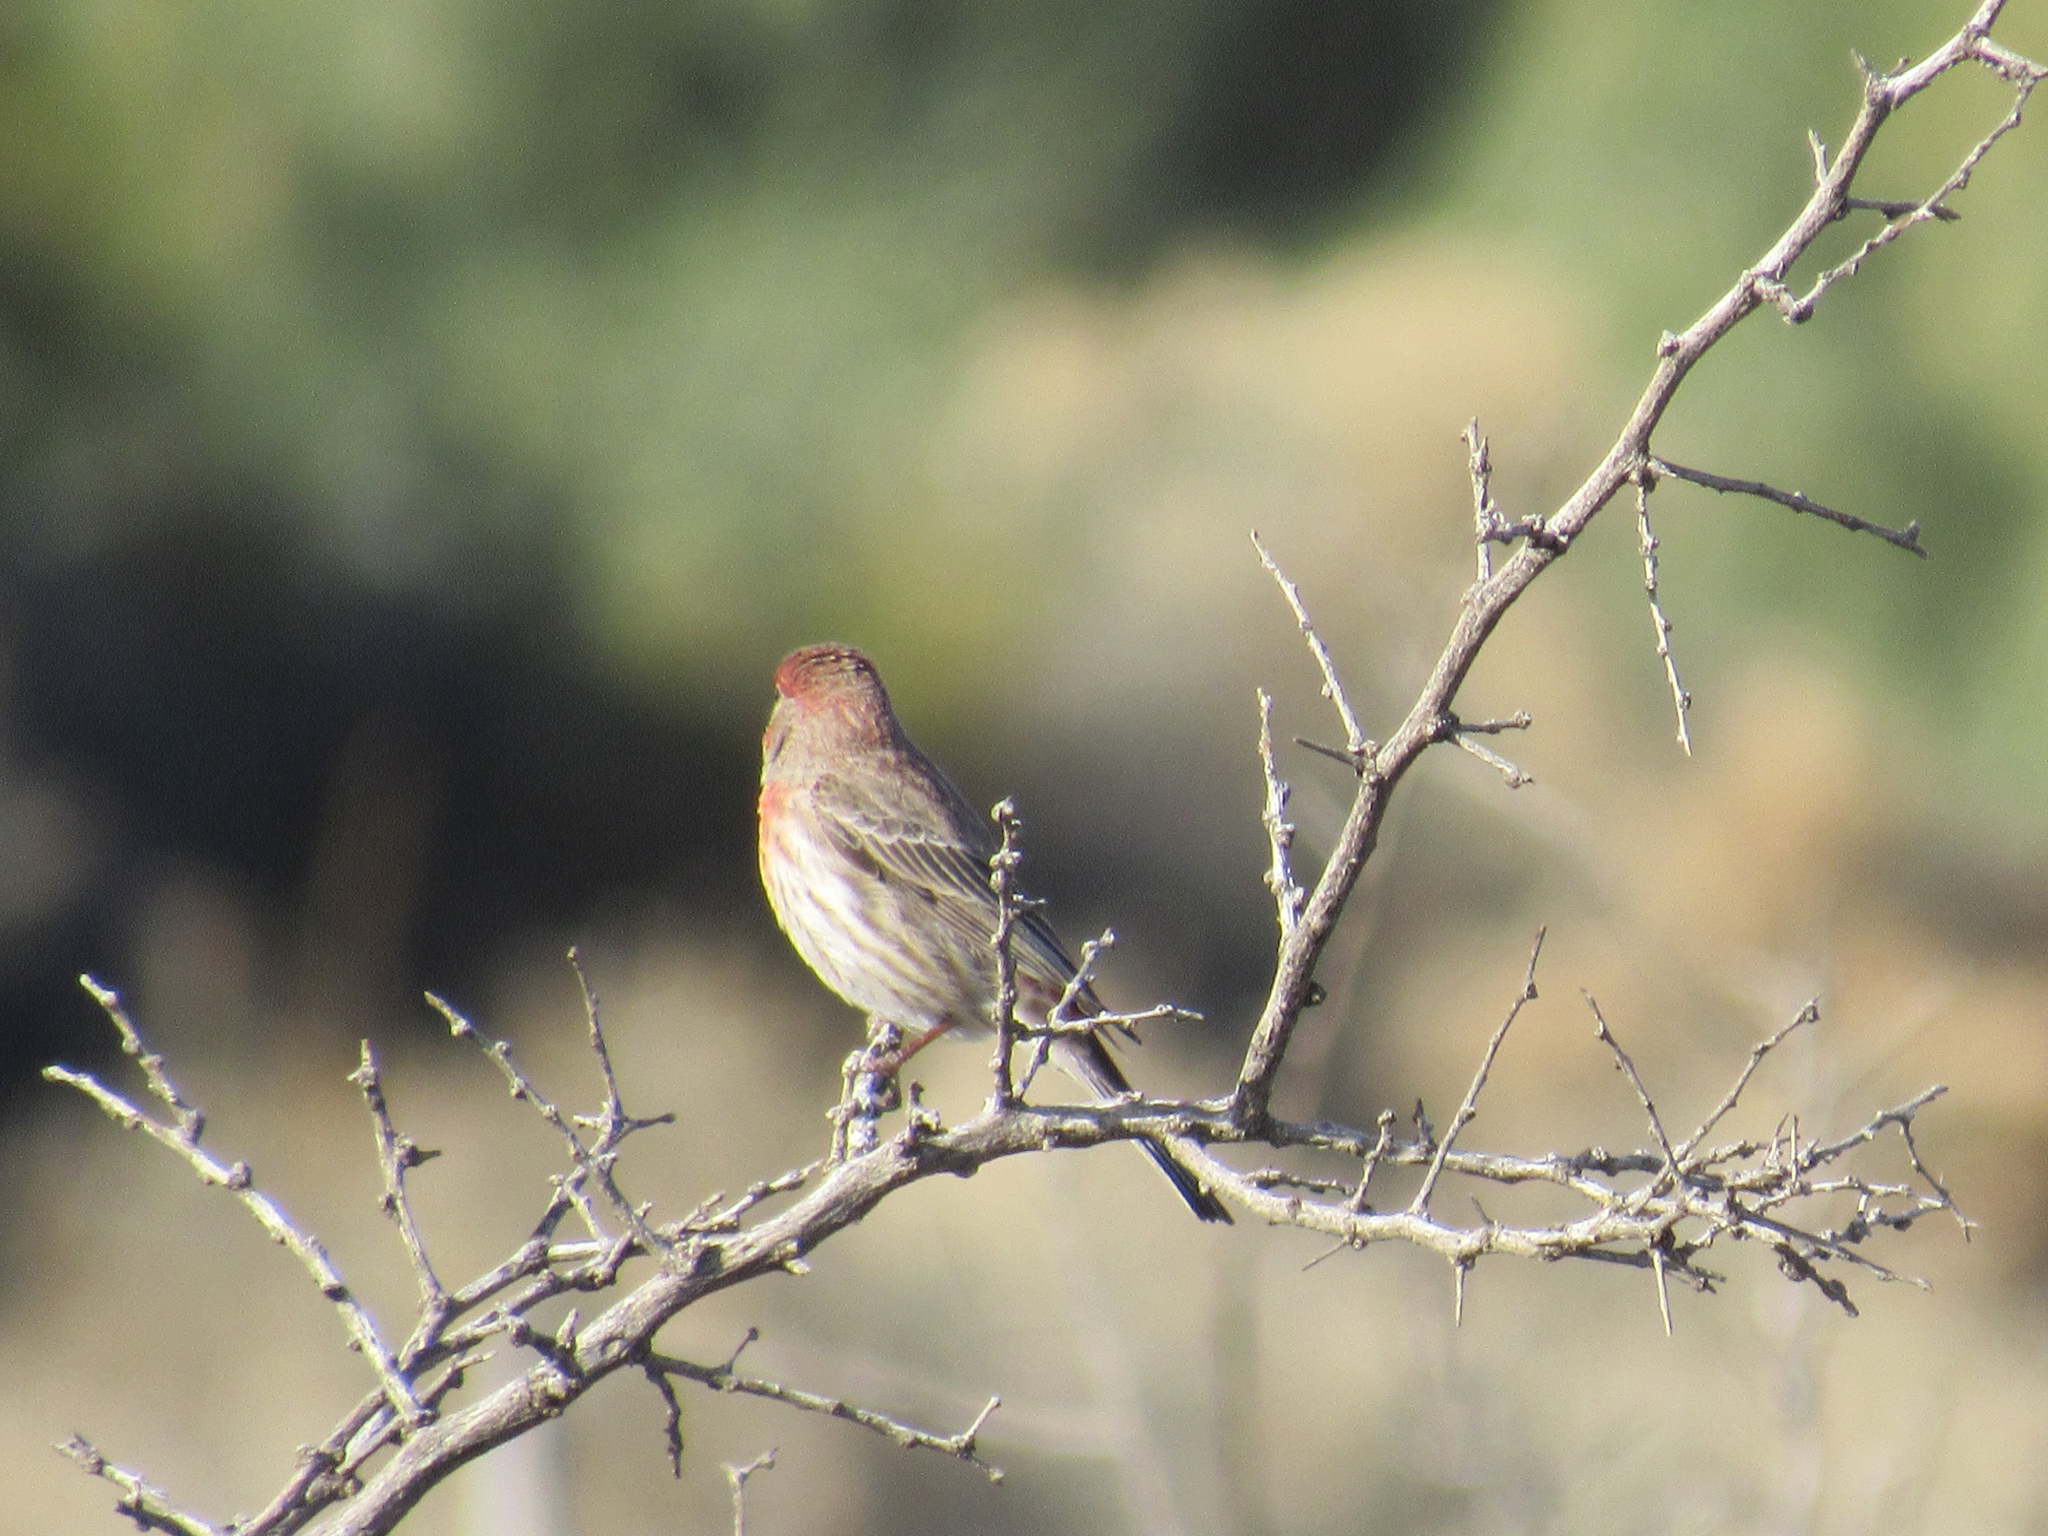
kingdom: Animalia
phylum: Chordata
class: Aves
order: Passeriformes
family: Fringillidae
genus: Haemorhous
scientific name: Haemorhous mexicanus
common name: House finch
